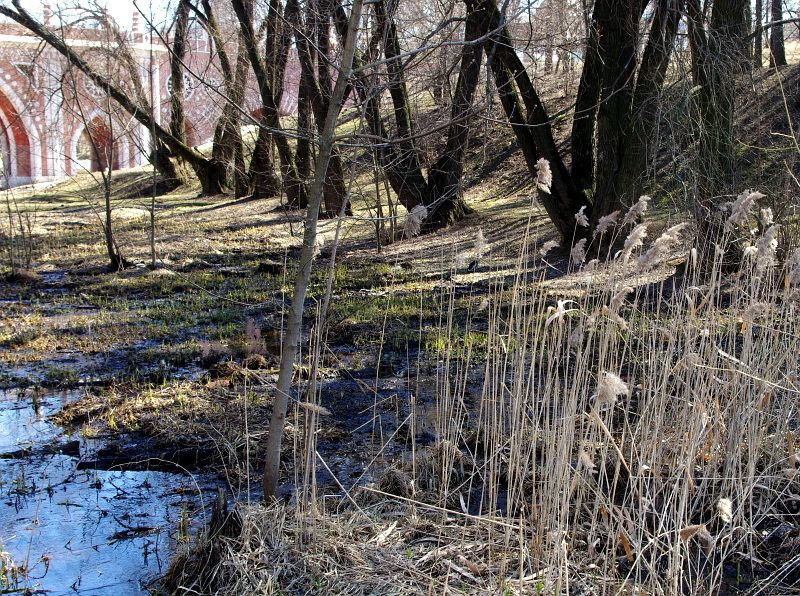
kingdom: Plantae
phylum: Tracheophyta
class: Liliopsida
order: Poales
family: Poaceae
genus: Phragmites
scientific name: Phragmites australis
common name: Common reed
